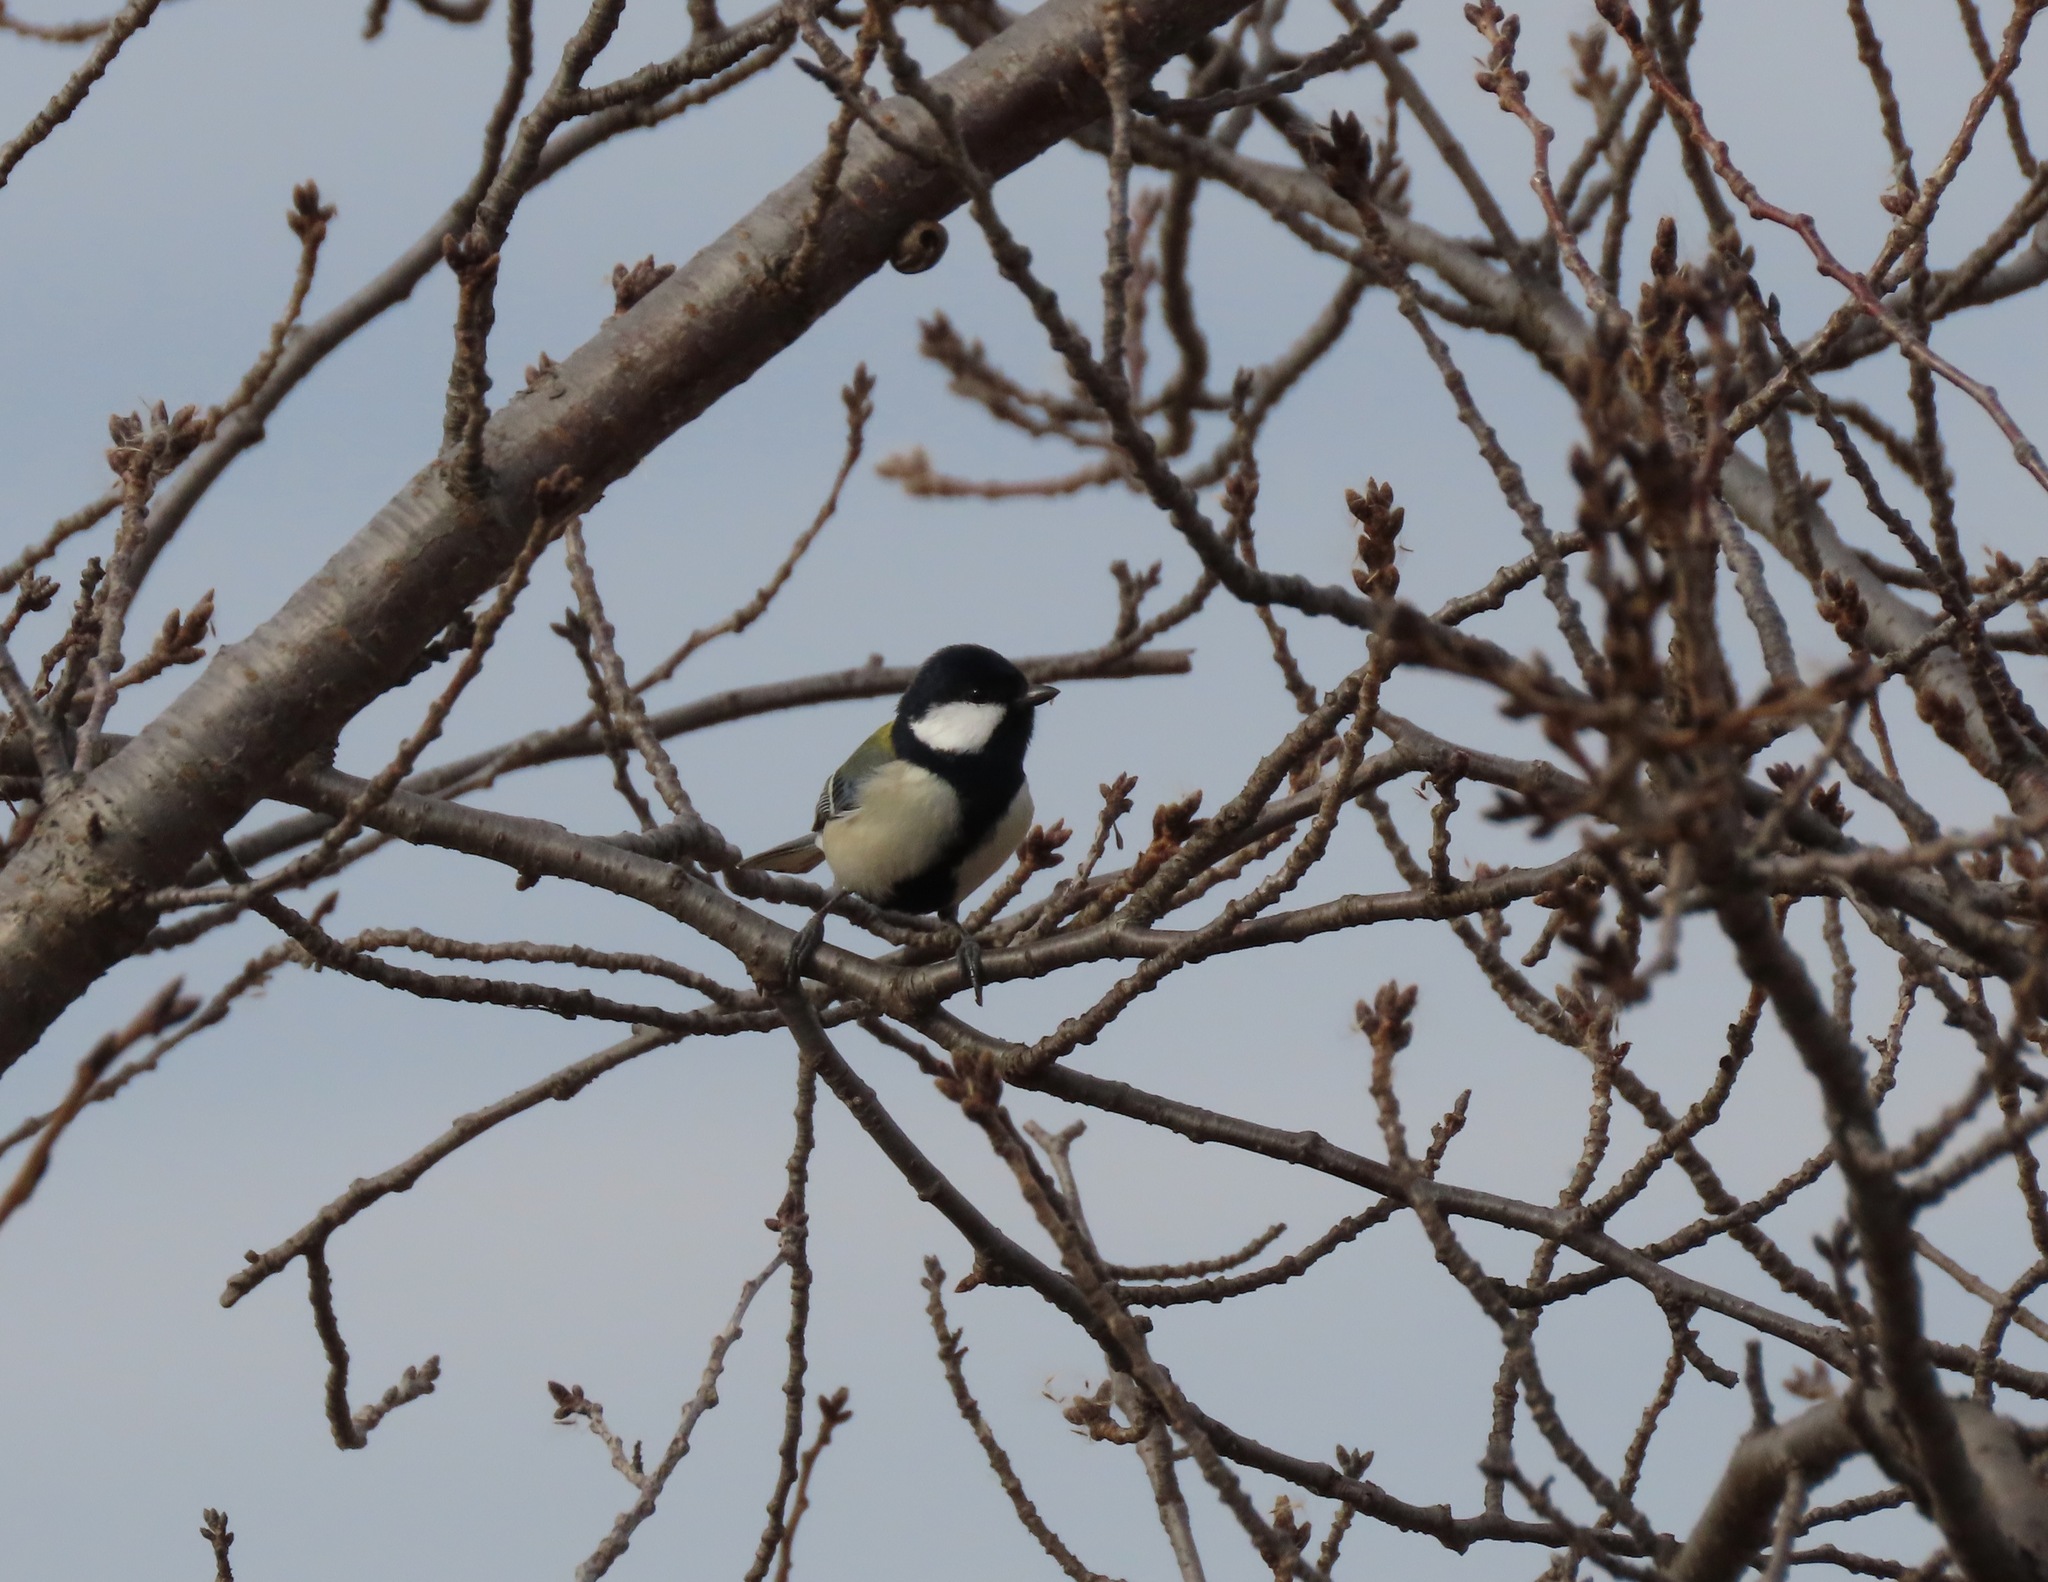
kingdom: Animalia
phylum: Chordata
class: Aves
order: Passeriformes
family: Paridae
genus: Parus
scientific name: Parus minor
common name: Japanese tit
